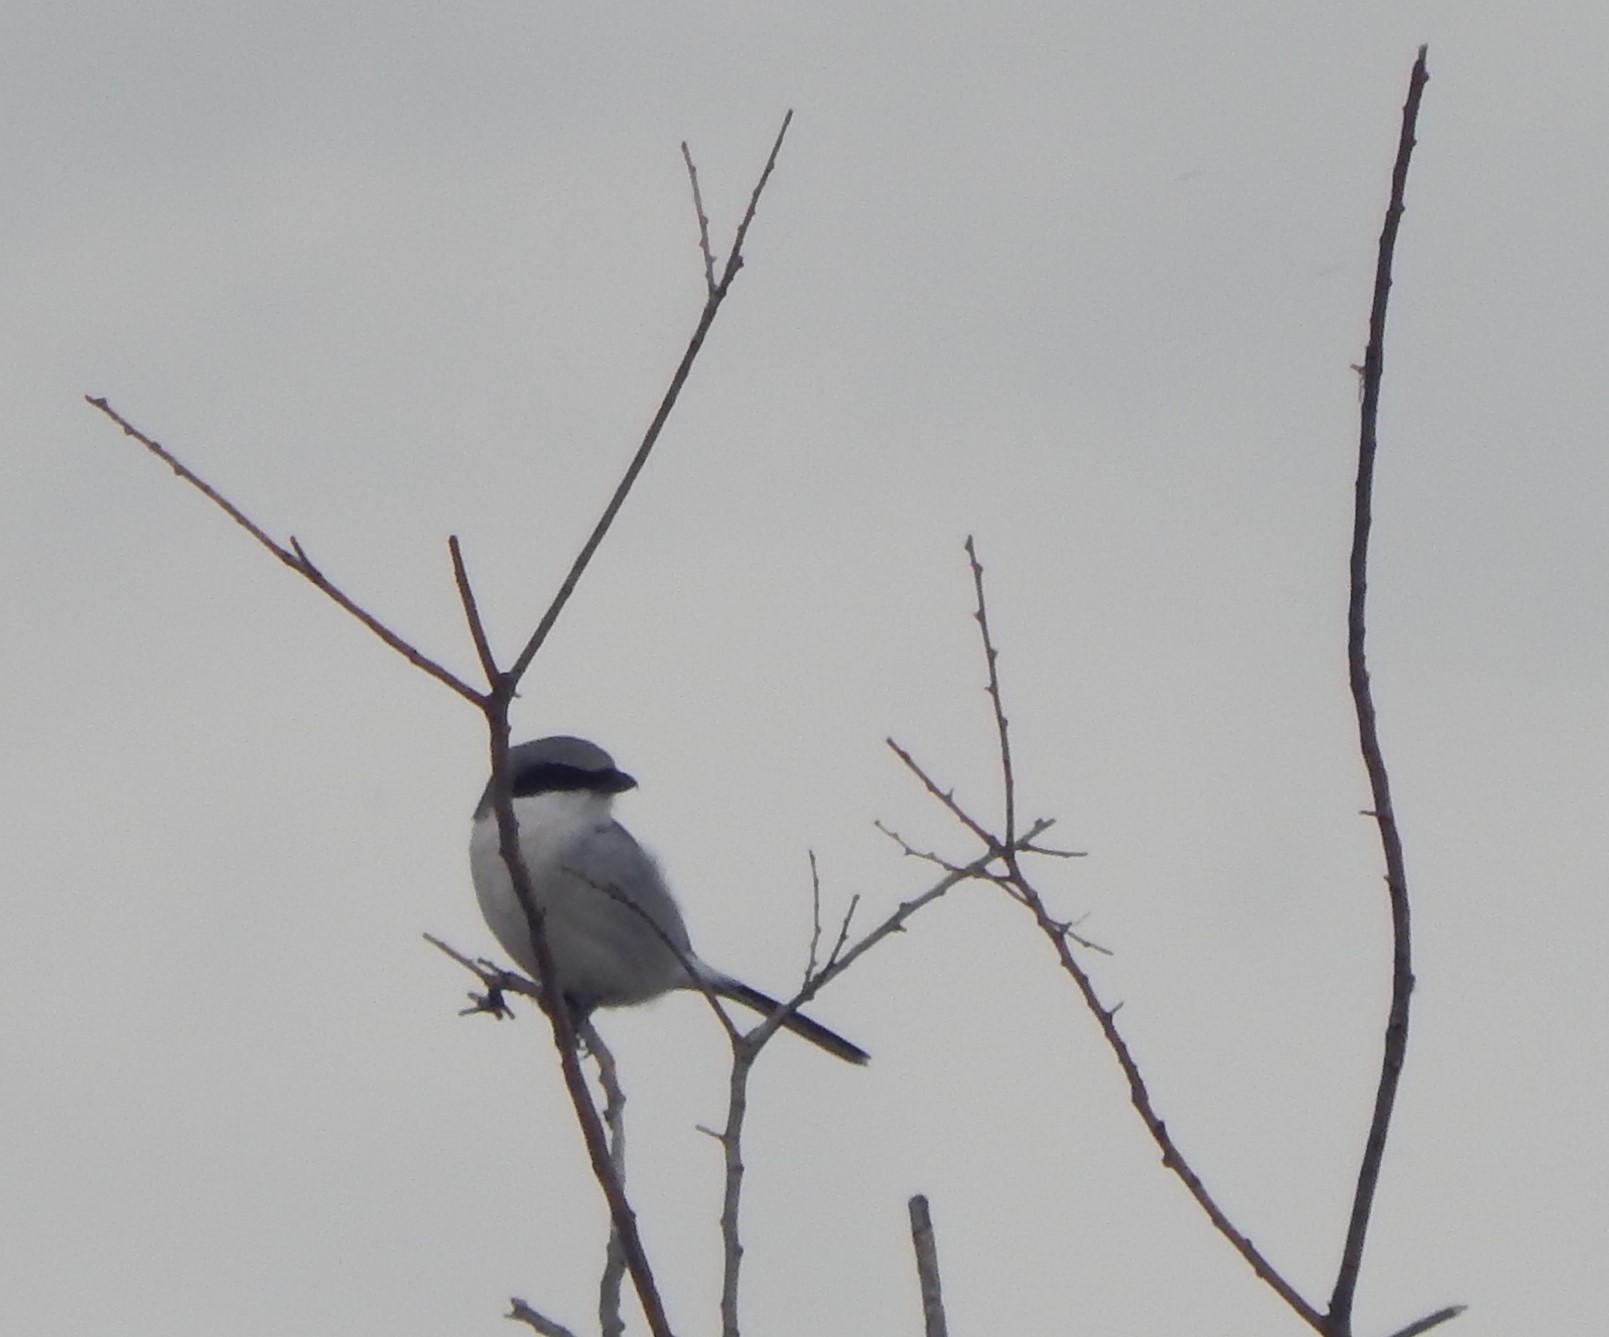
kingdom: Animalia
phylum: Chordata
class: Aves
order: Passeriformes
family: Laniidae
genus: Lanius
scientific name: Lanius ludovicianus
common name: Loggerhead shrike
